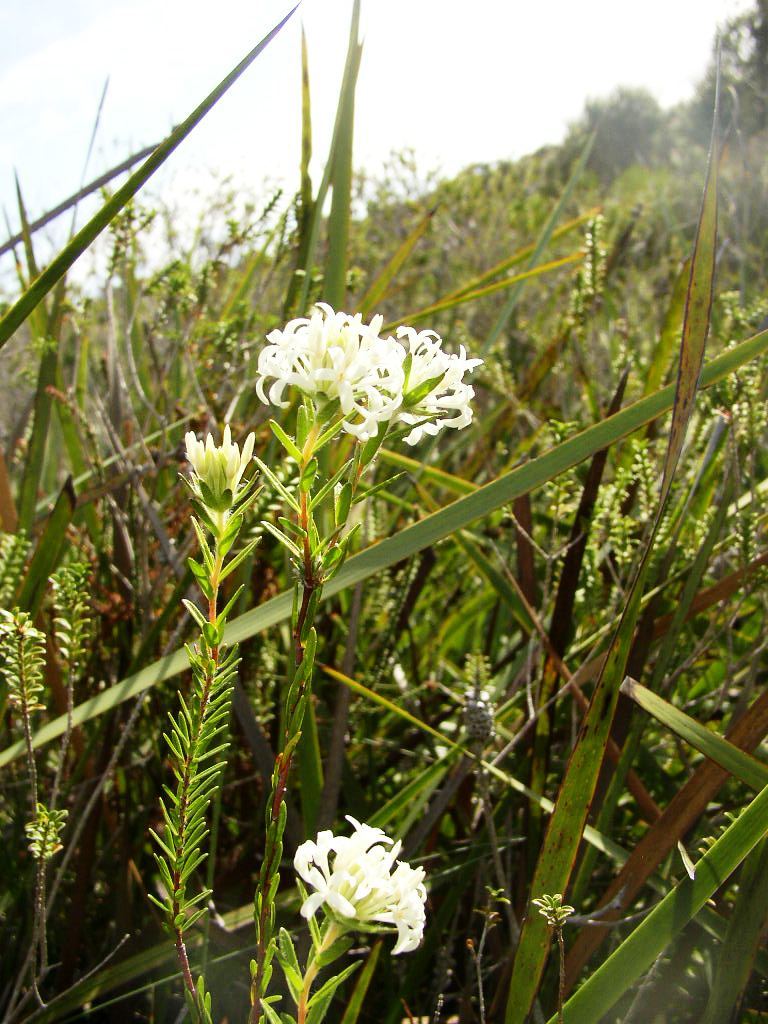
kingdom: Plantae
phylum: Tracheophyta
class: Magnoliopsida
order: Malvales
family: Thymelaeaceae
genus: Pimelea
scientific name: Pimelea longiflora
